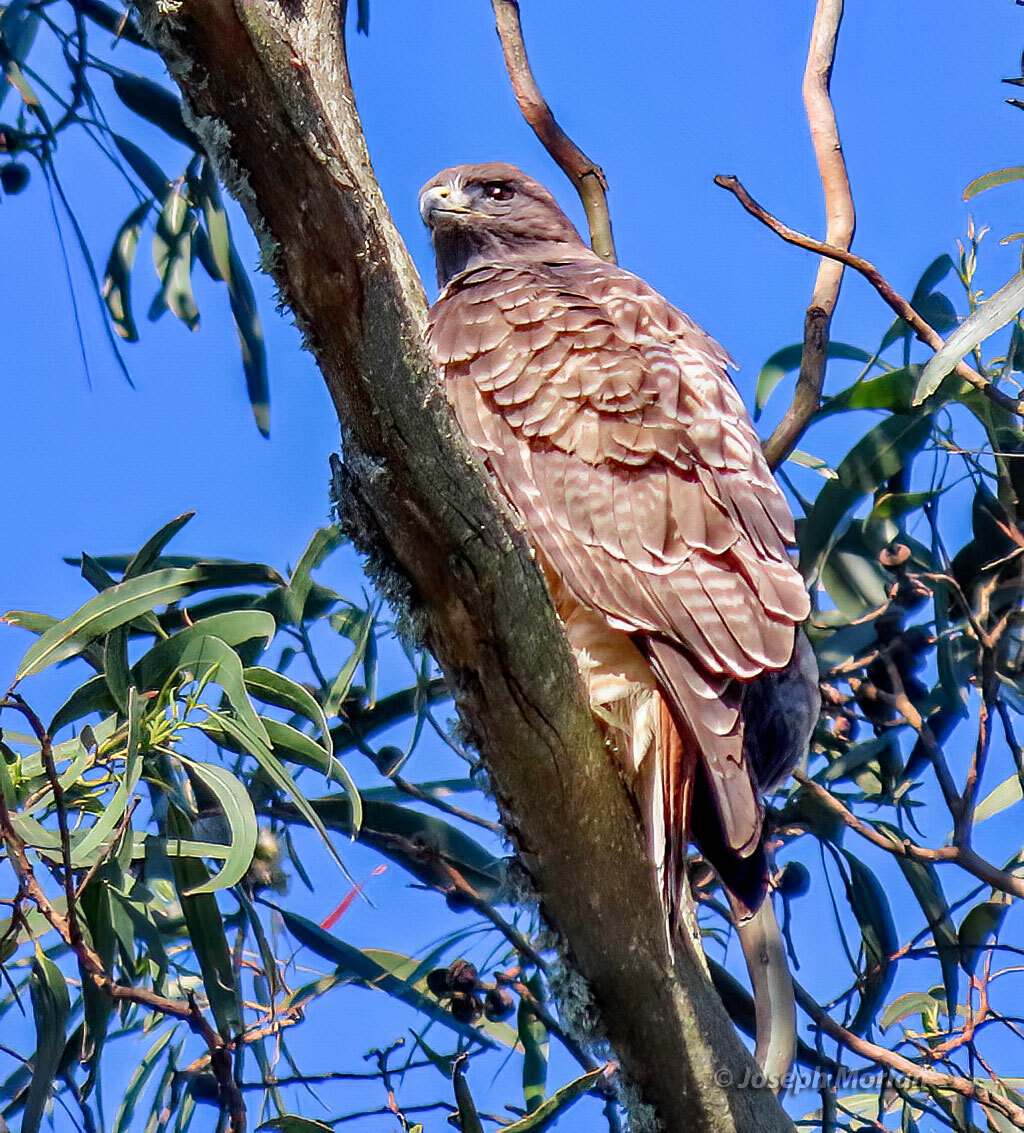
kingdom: Animalia
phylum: Chordata
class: Aves
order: Accipitriformes
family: Accipitridae
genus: Buteo
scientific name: Buteo jamaicensis
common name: Red-tailed hawk
